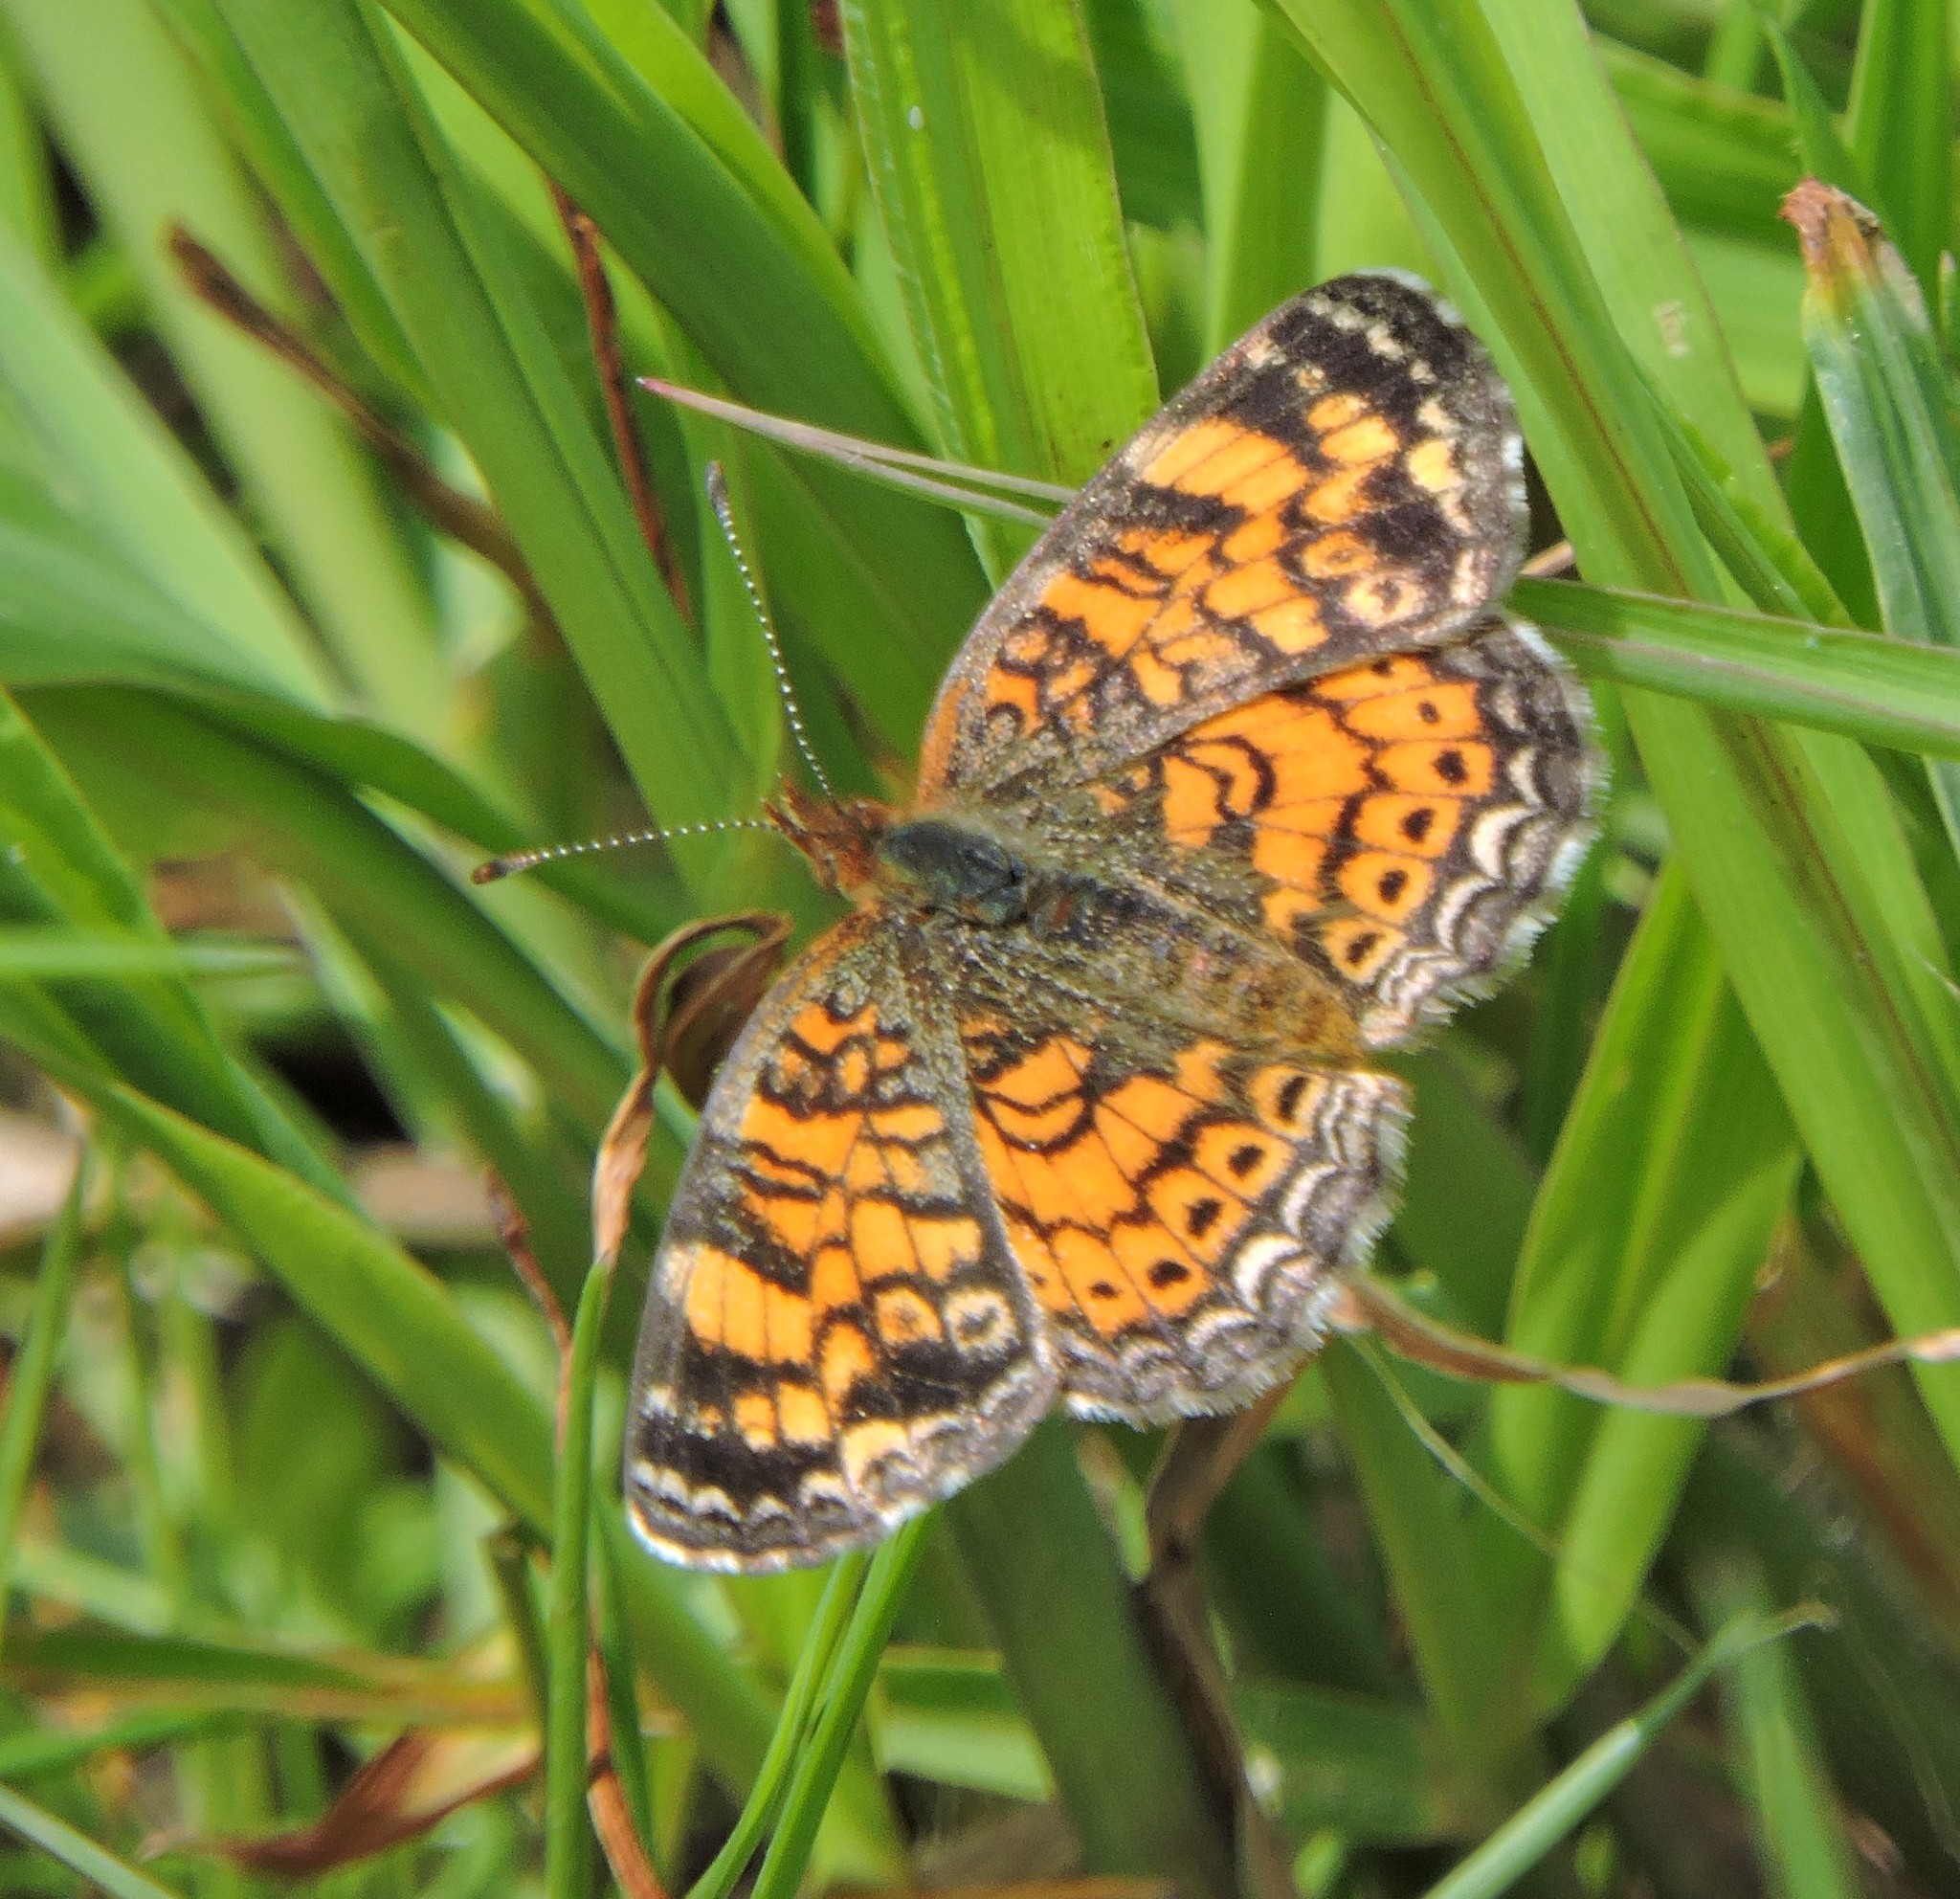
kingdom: Animalia
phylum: Arthropoda
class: Insecta
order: Lepidoptera
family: Nymphalidae
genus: Phyciodes
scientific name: Phyciodes tharos
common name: Pearl crescent
